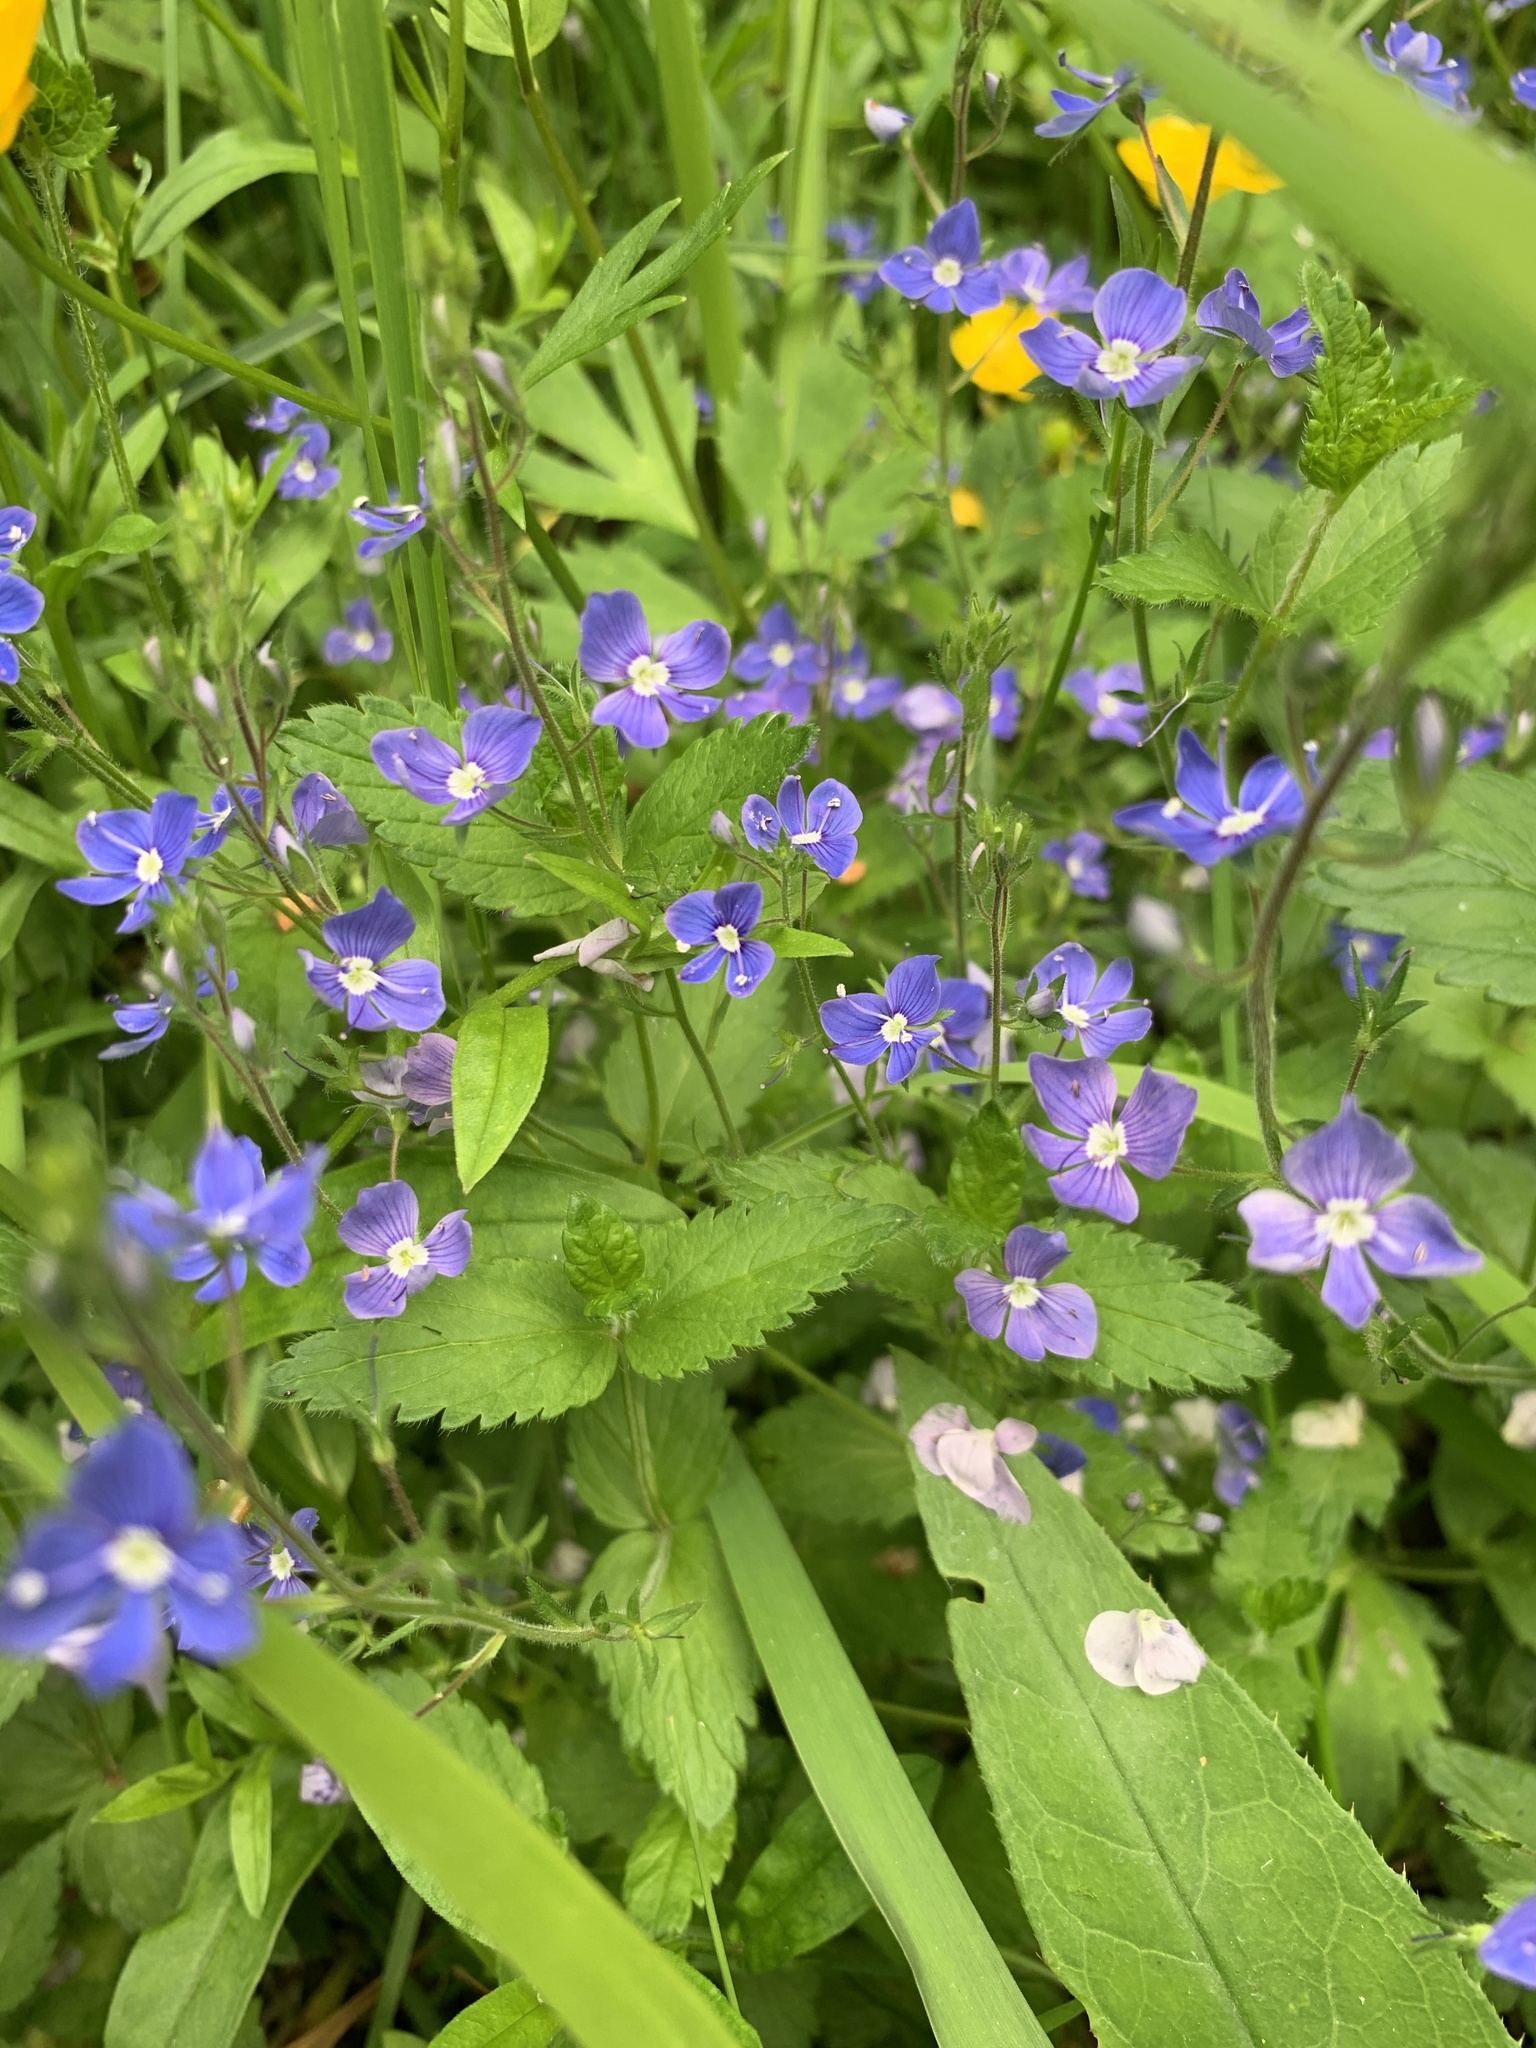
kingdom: Plantae
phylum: Tracheophyta
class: Magnoliopsida
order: Lamiales
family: Plantaginaceae
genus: Veronica
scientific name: Veronica chamaedrys
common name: Germander speedwell
